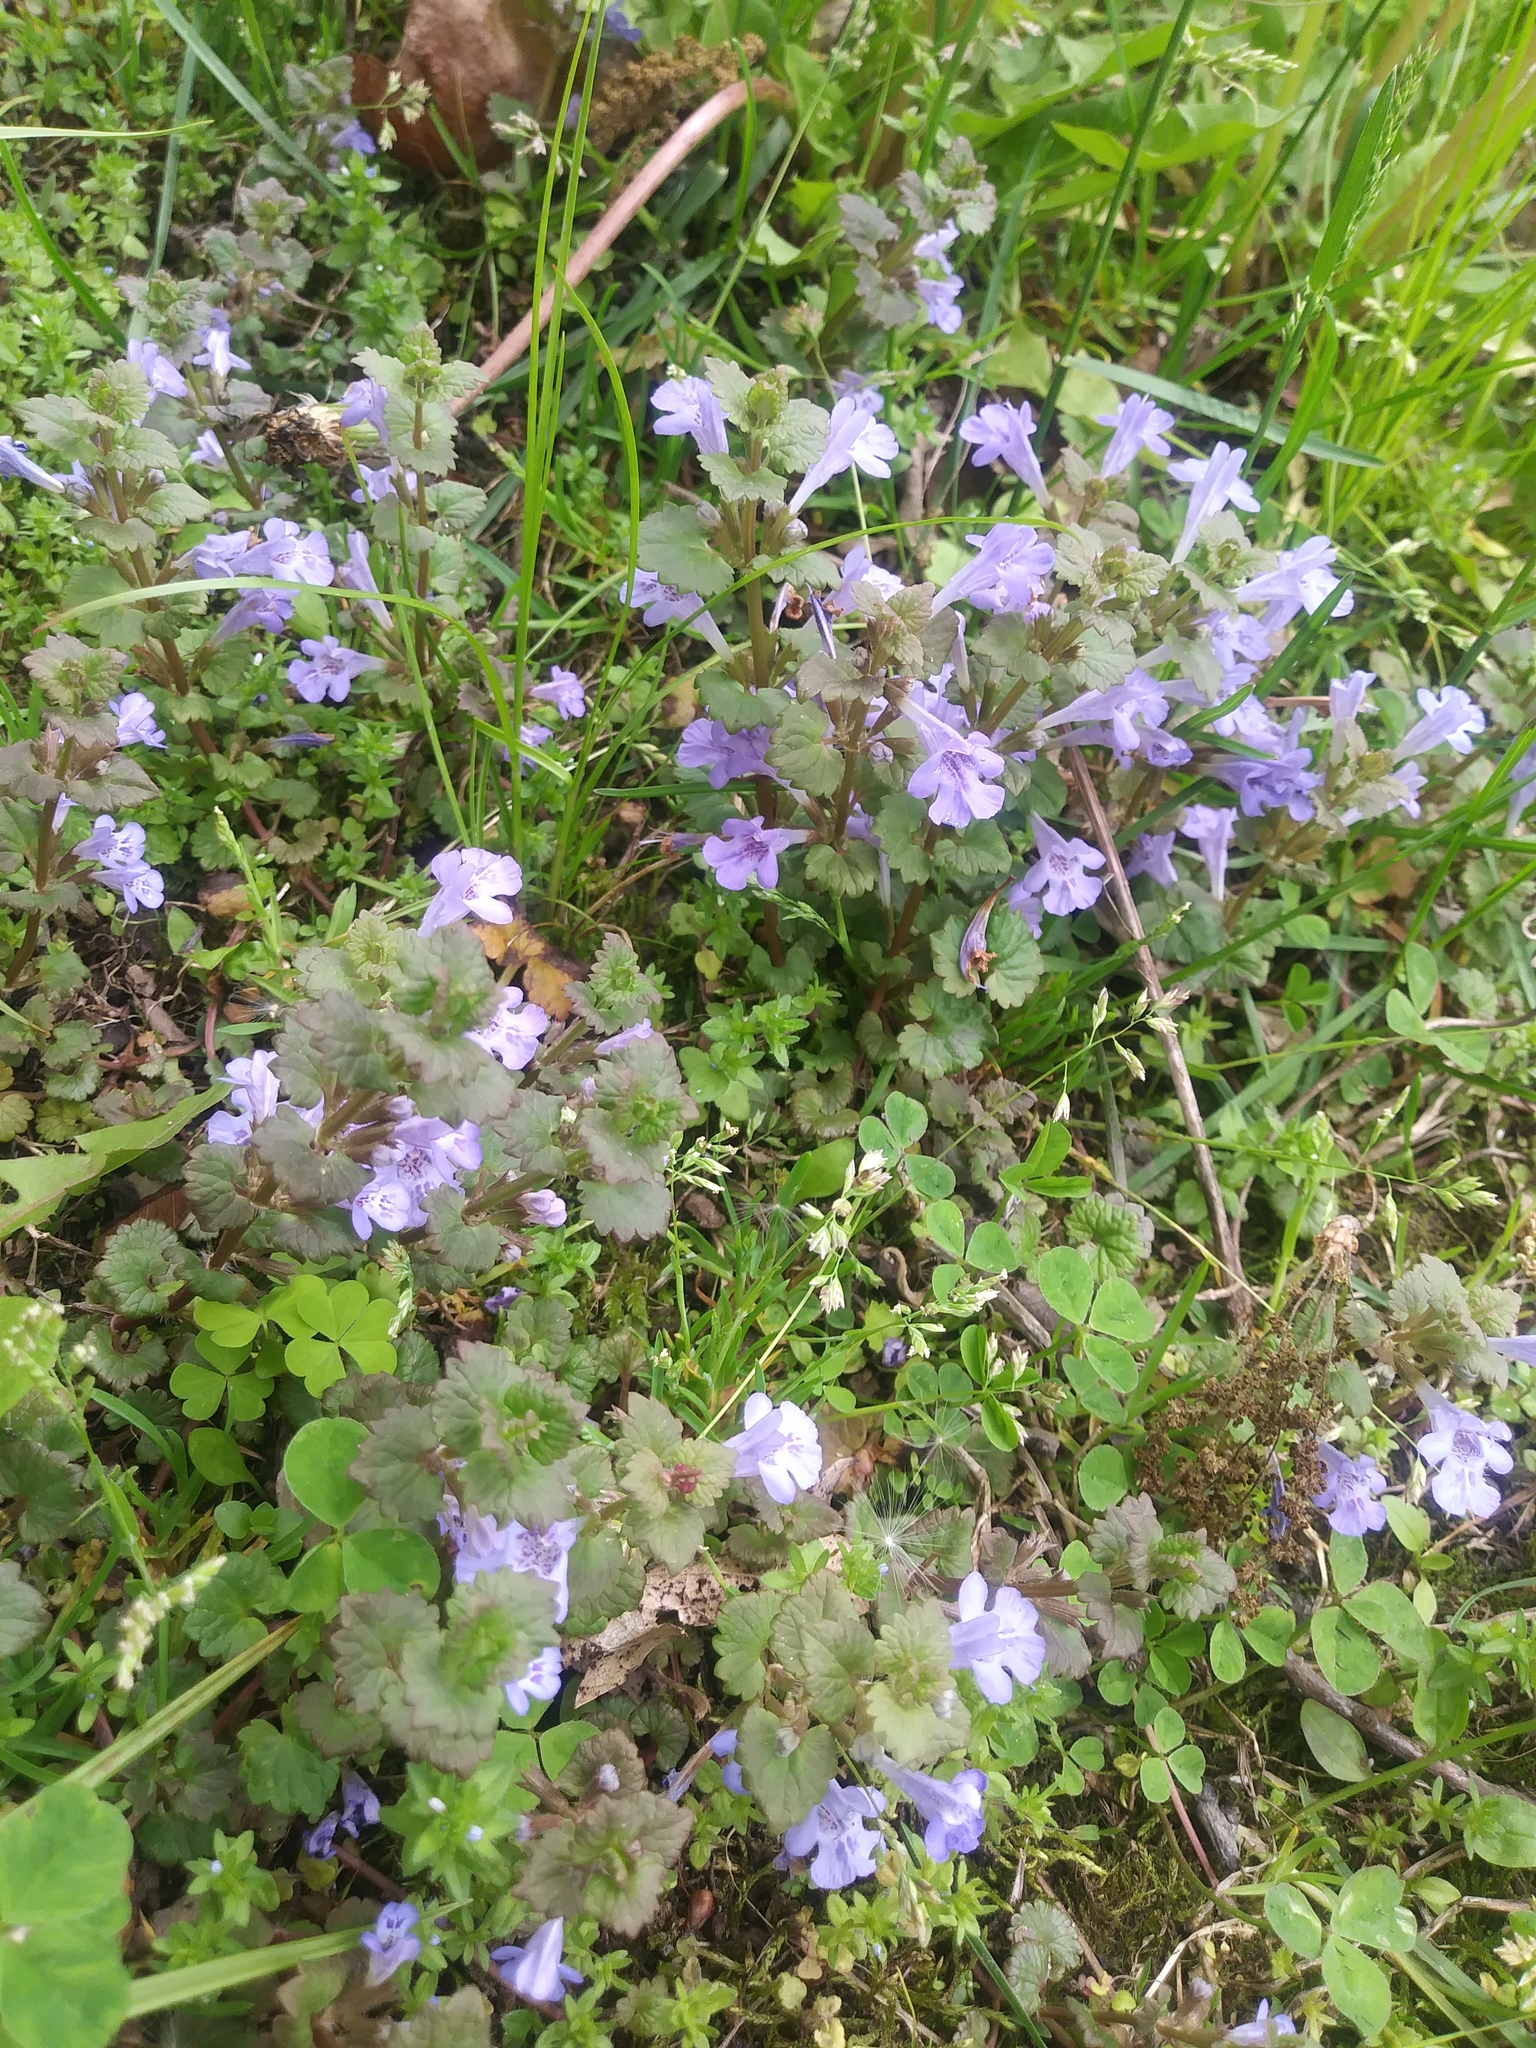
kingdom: Plantae
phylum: Tracheophyta
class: Magnoliopsida
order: Lamiales
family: Lamiaceae
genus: Glechoma
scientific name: Glechoma hederacea
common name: Ground ivy
